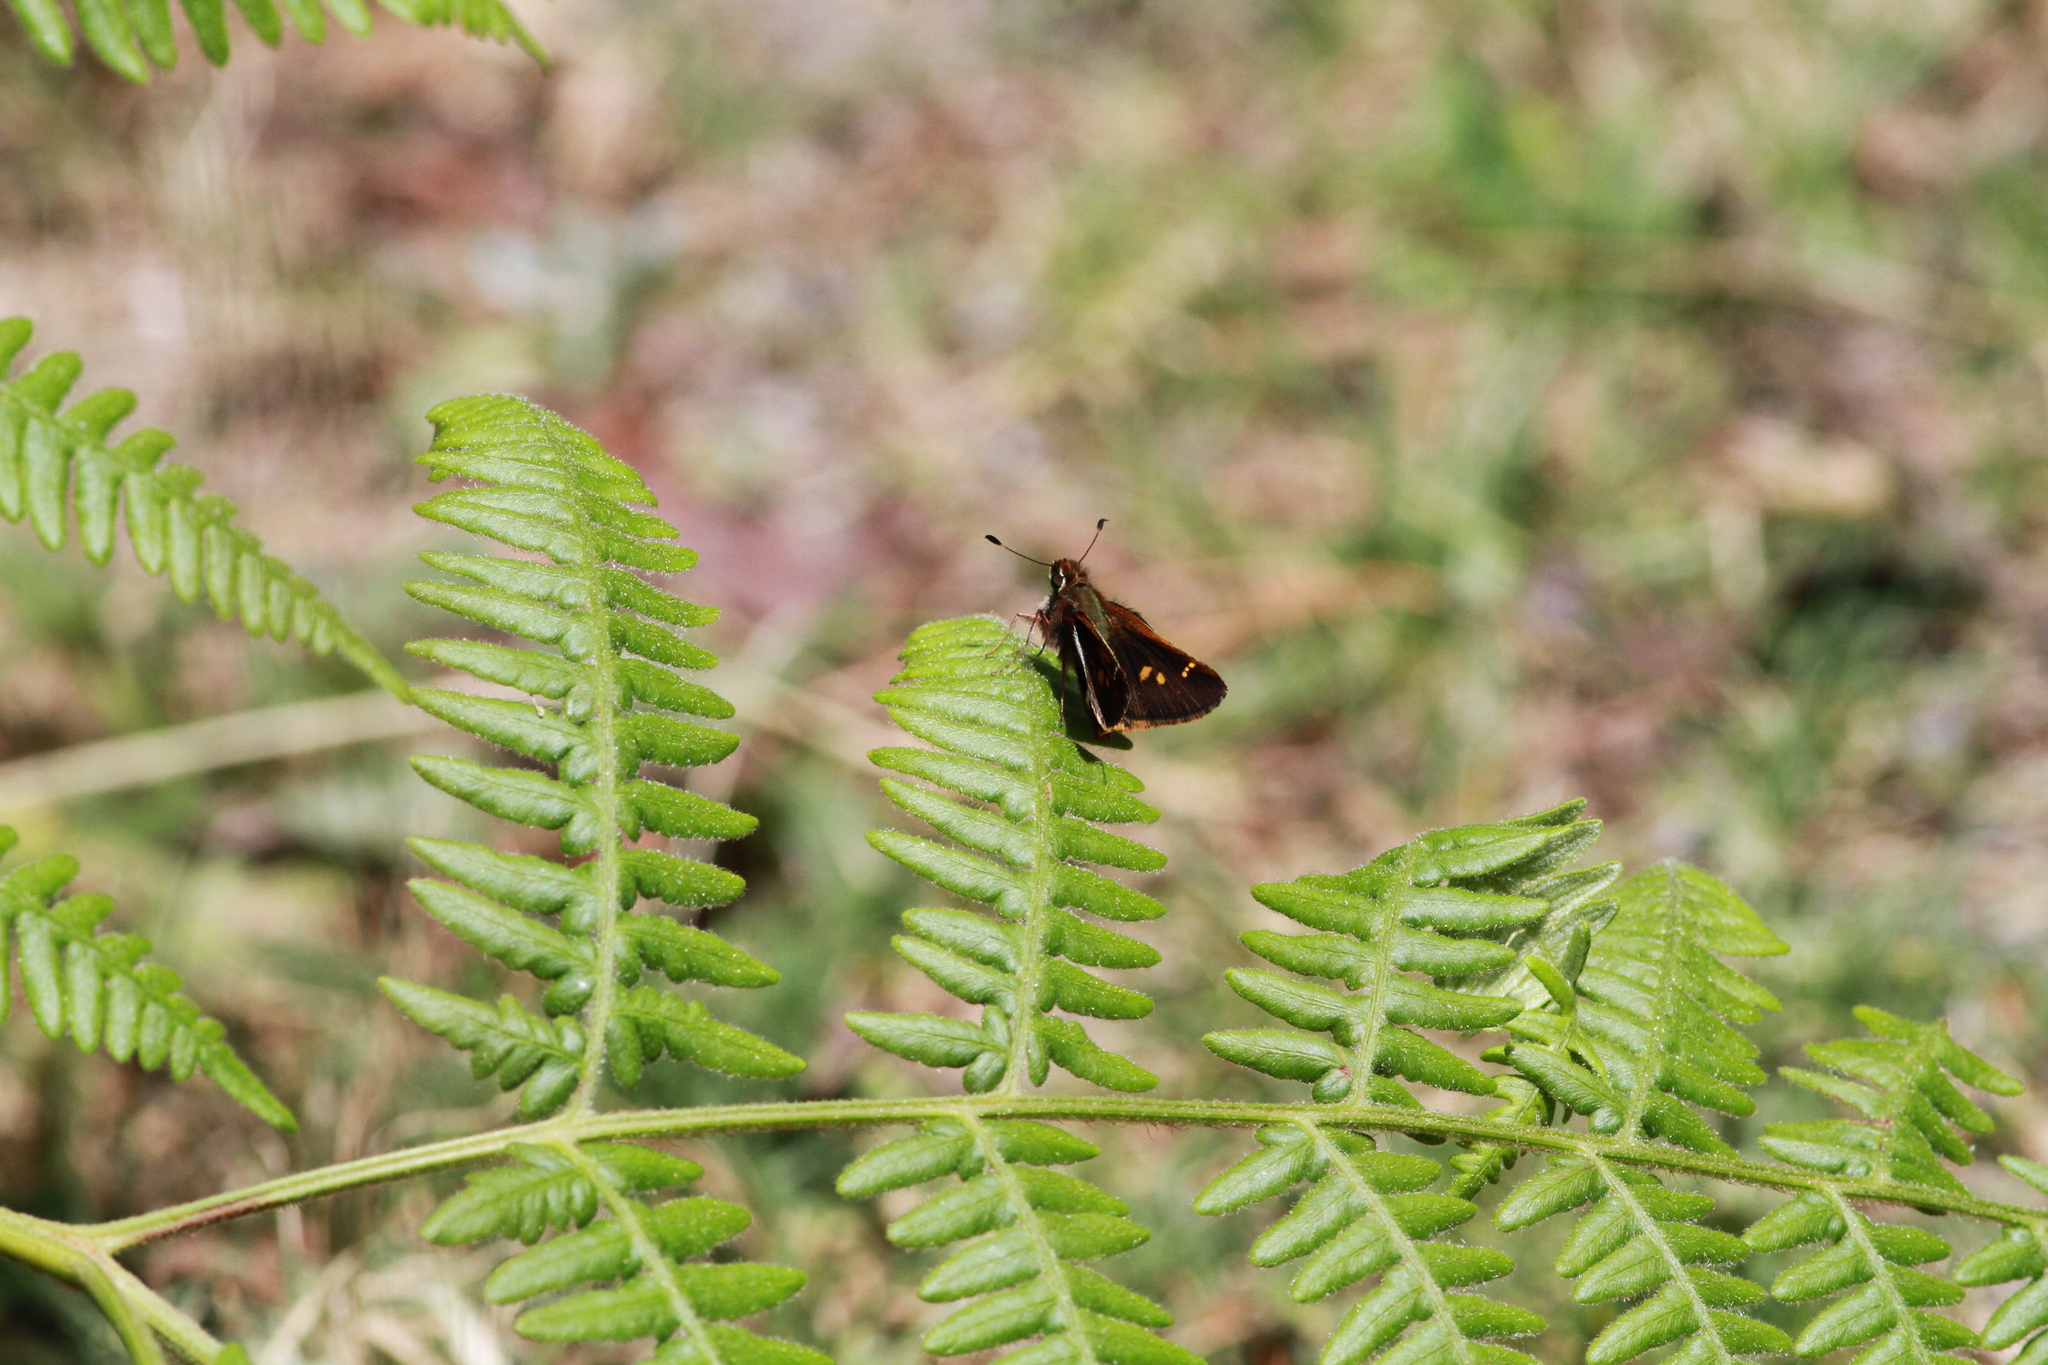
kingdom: Animalia
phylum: Arthropoda
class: Insecta
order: Lepidoptera
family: Hesperiidae
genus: Lon
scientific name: Lon monticola
